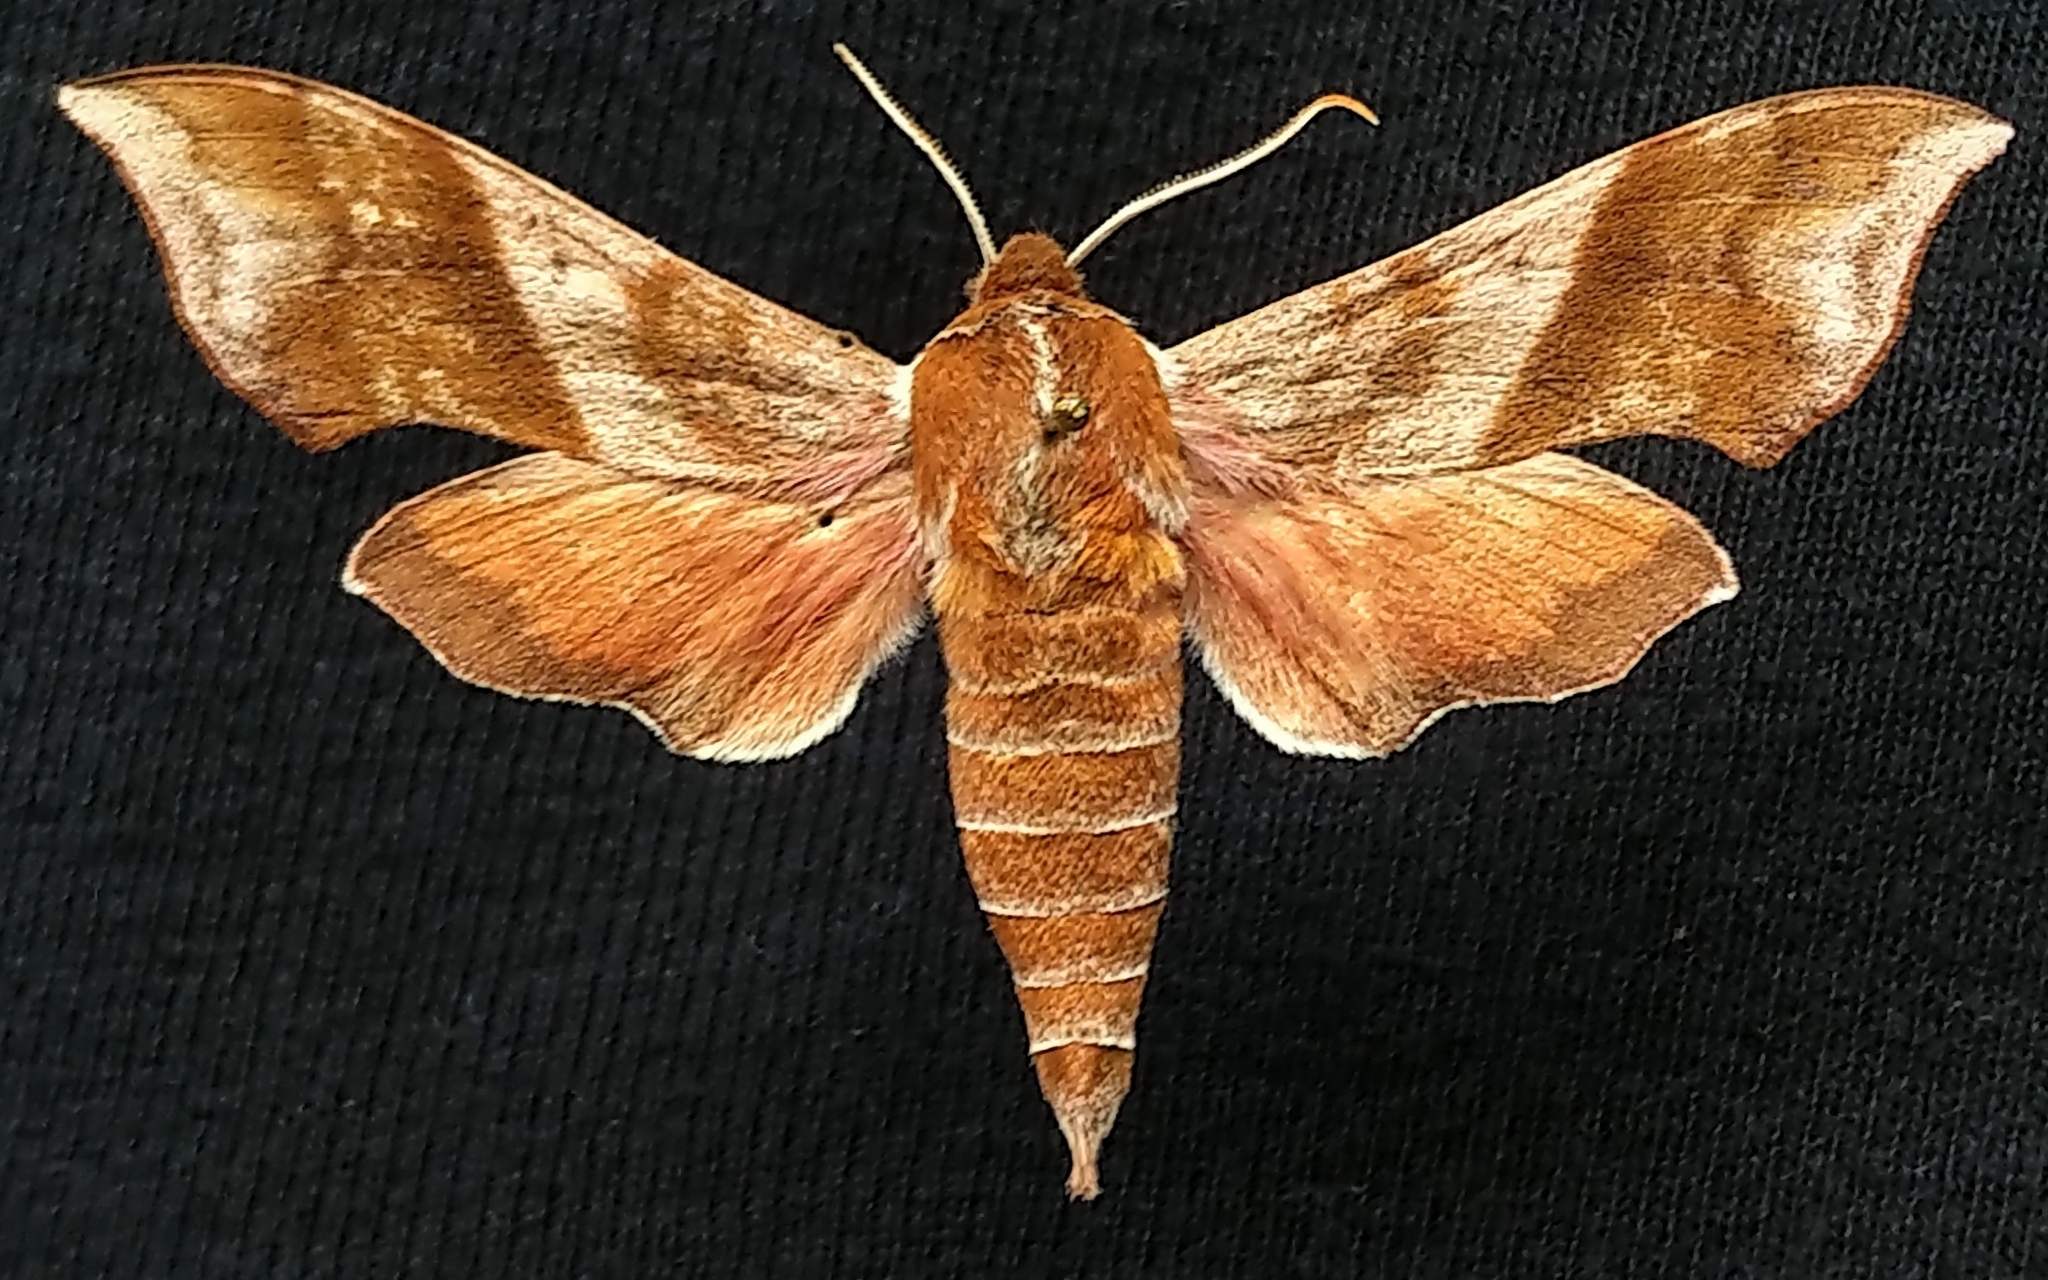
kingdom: Animalia
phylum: Arthropoda
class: Insecta
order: Lepidoptera
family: Sphingidae
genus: Darapsa
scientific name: Darapsa choerilus
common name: Azalea sphinx
